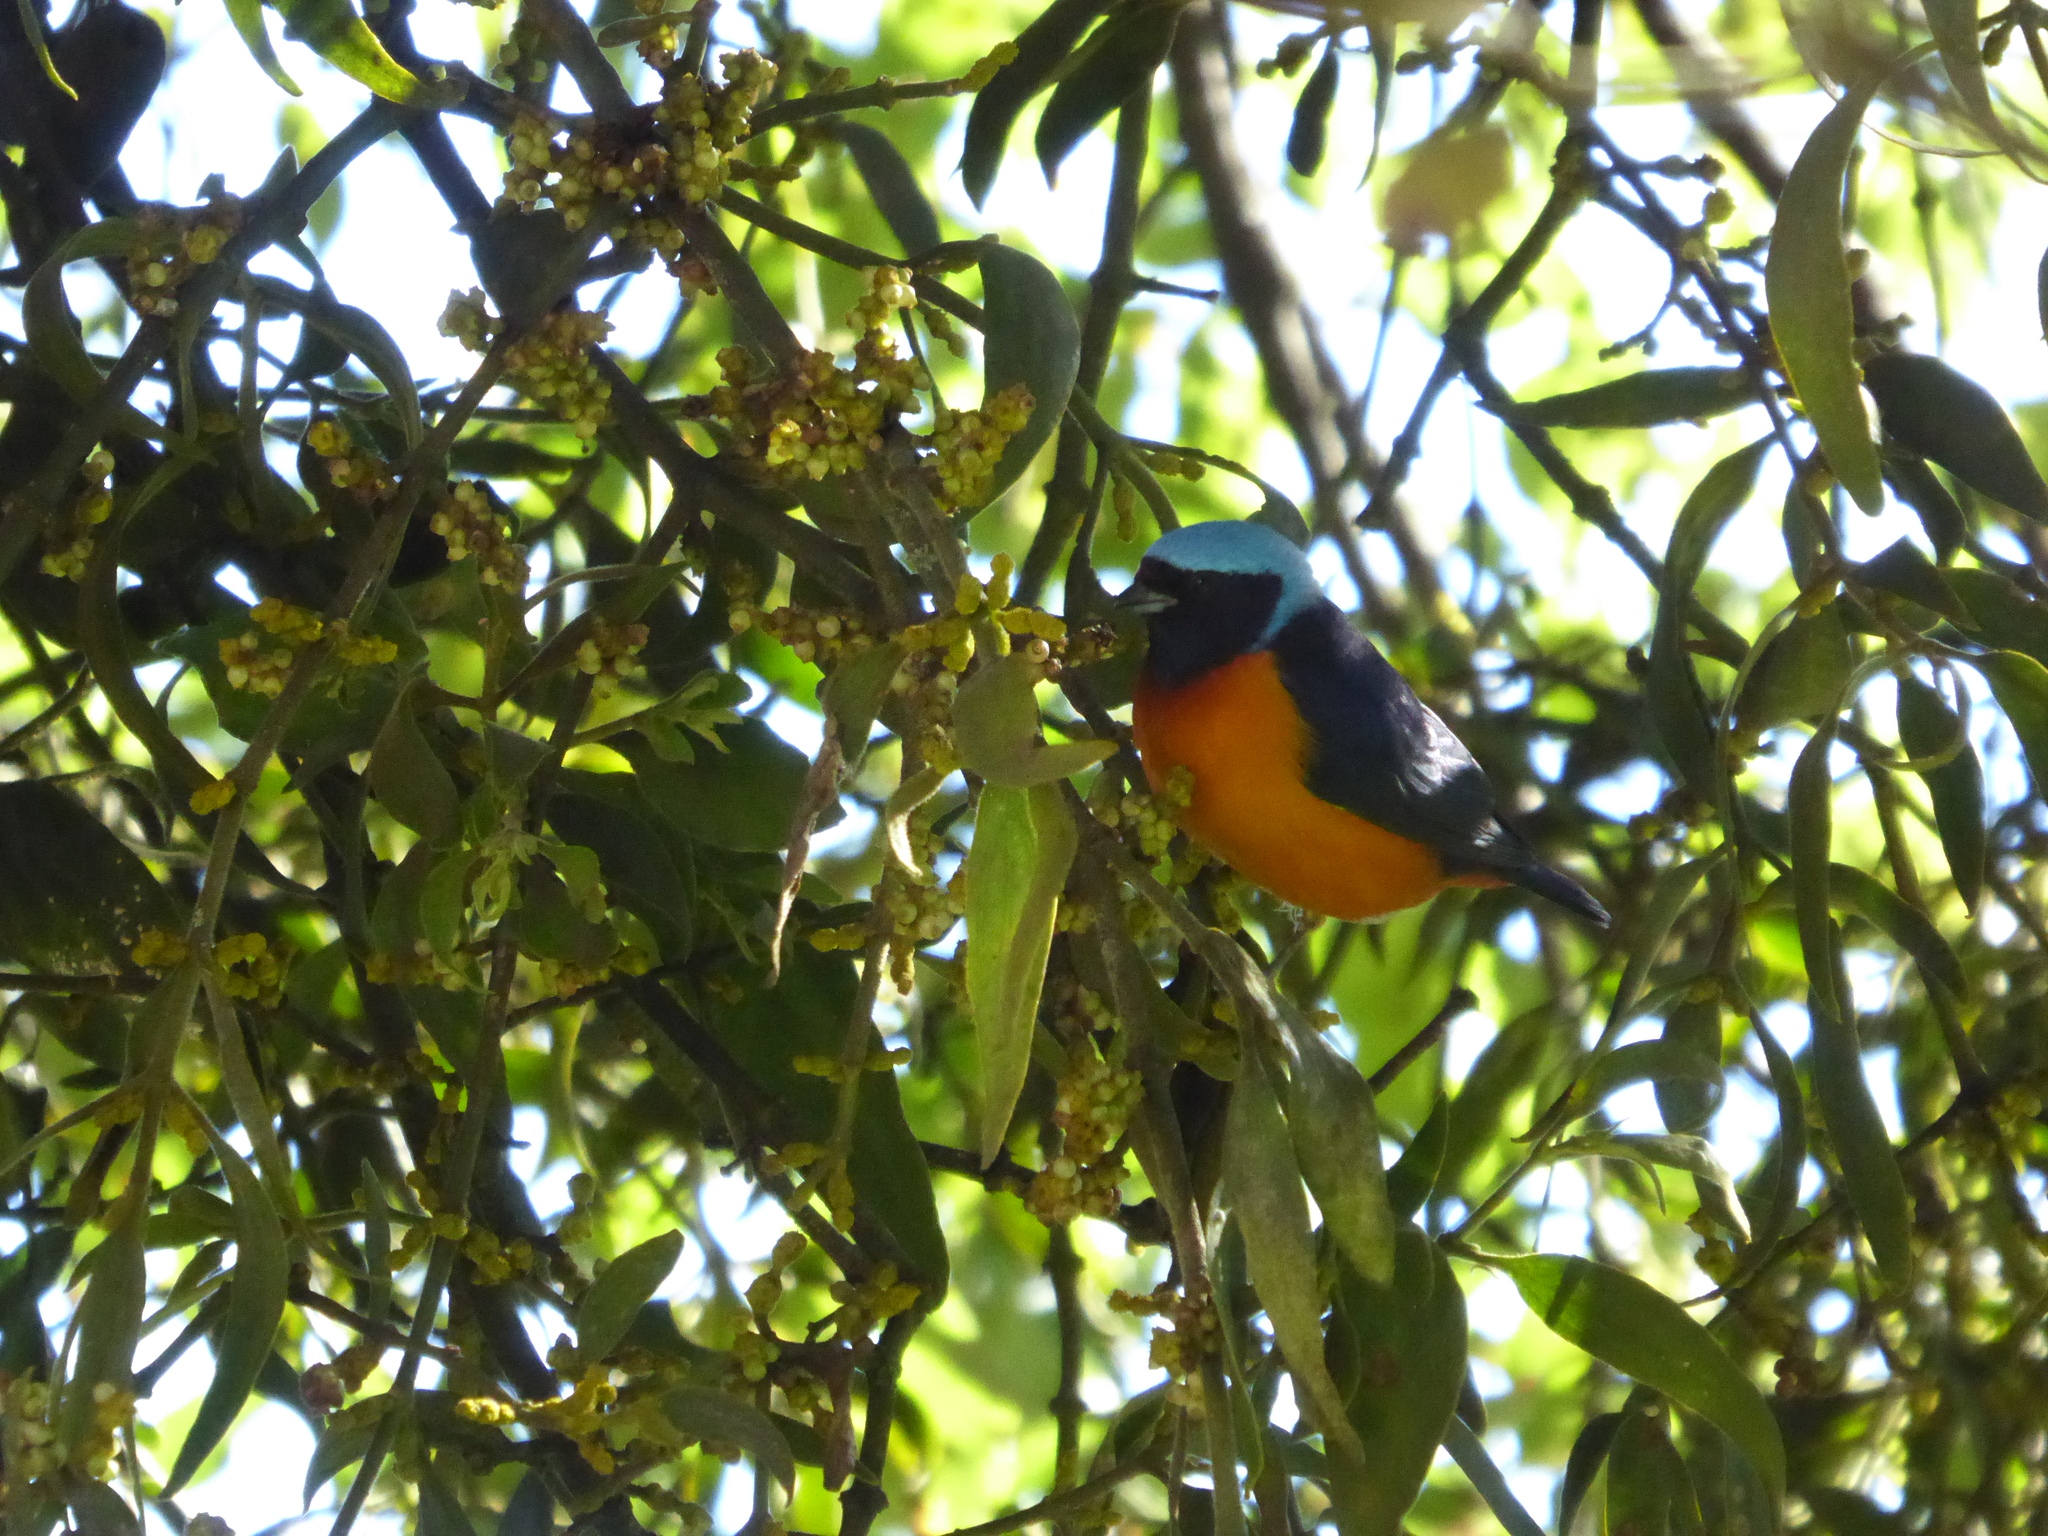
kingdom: Animalia
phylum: Chordata
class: Aves
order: Passeriformes
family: Fringillidae
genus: Euphonia
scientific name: Euphonia elegantissima
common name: Elegant euphonia
